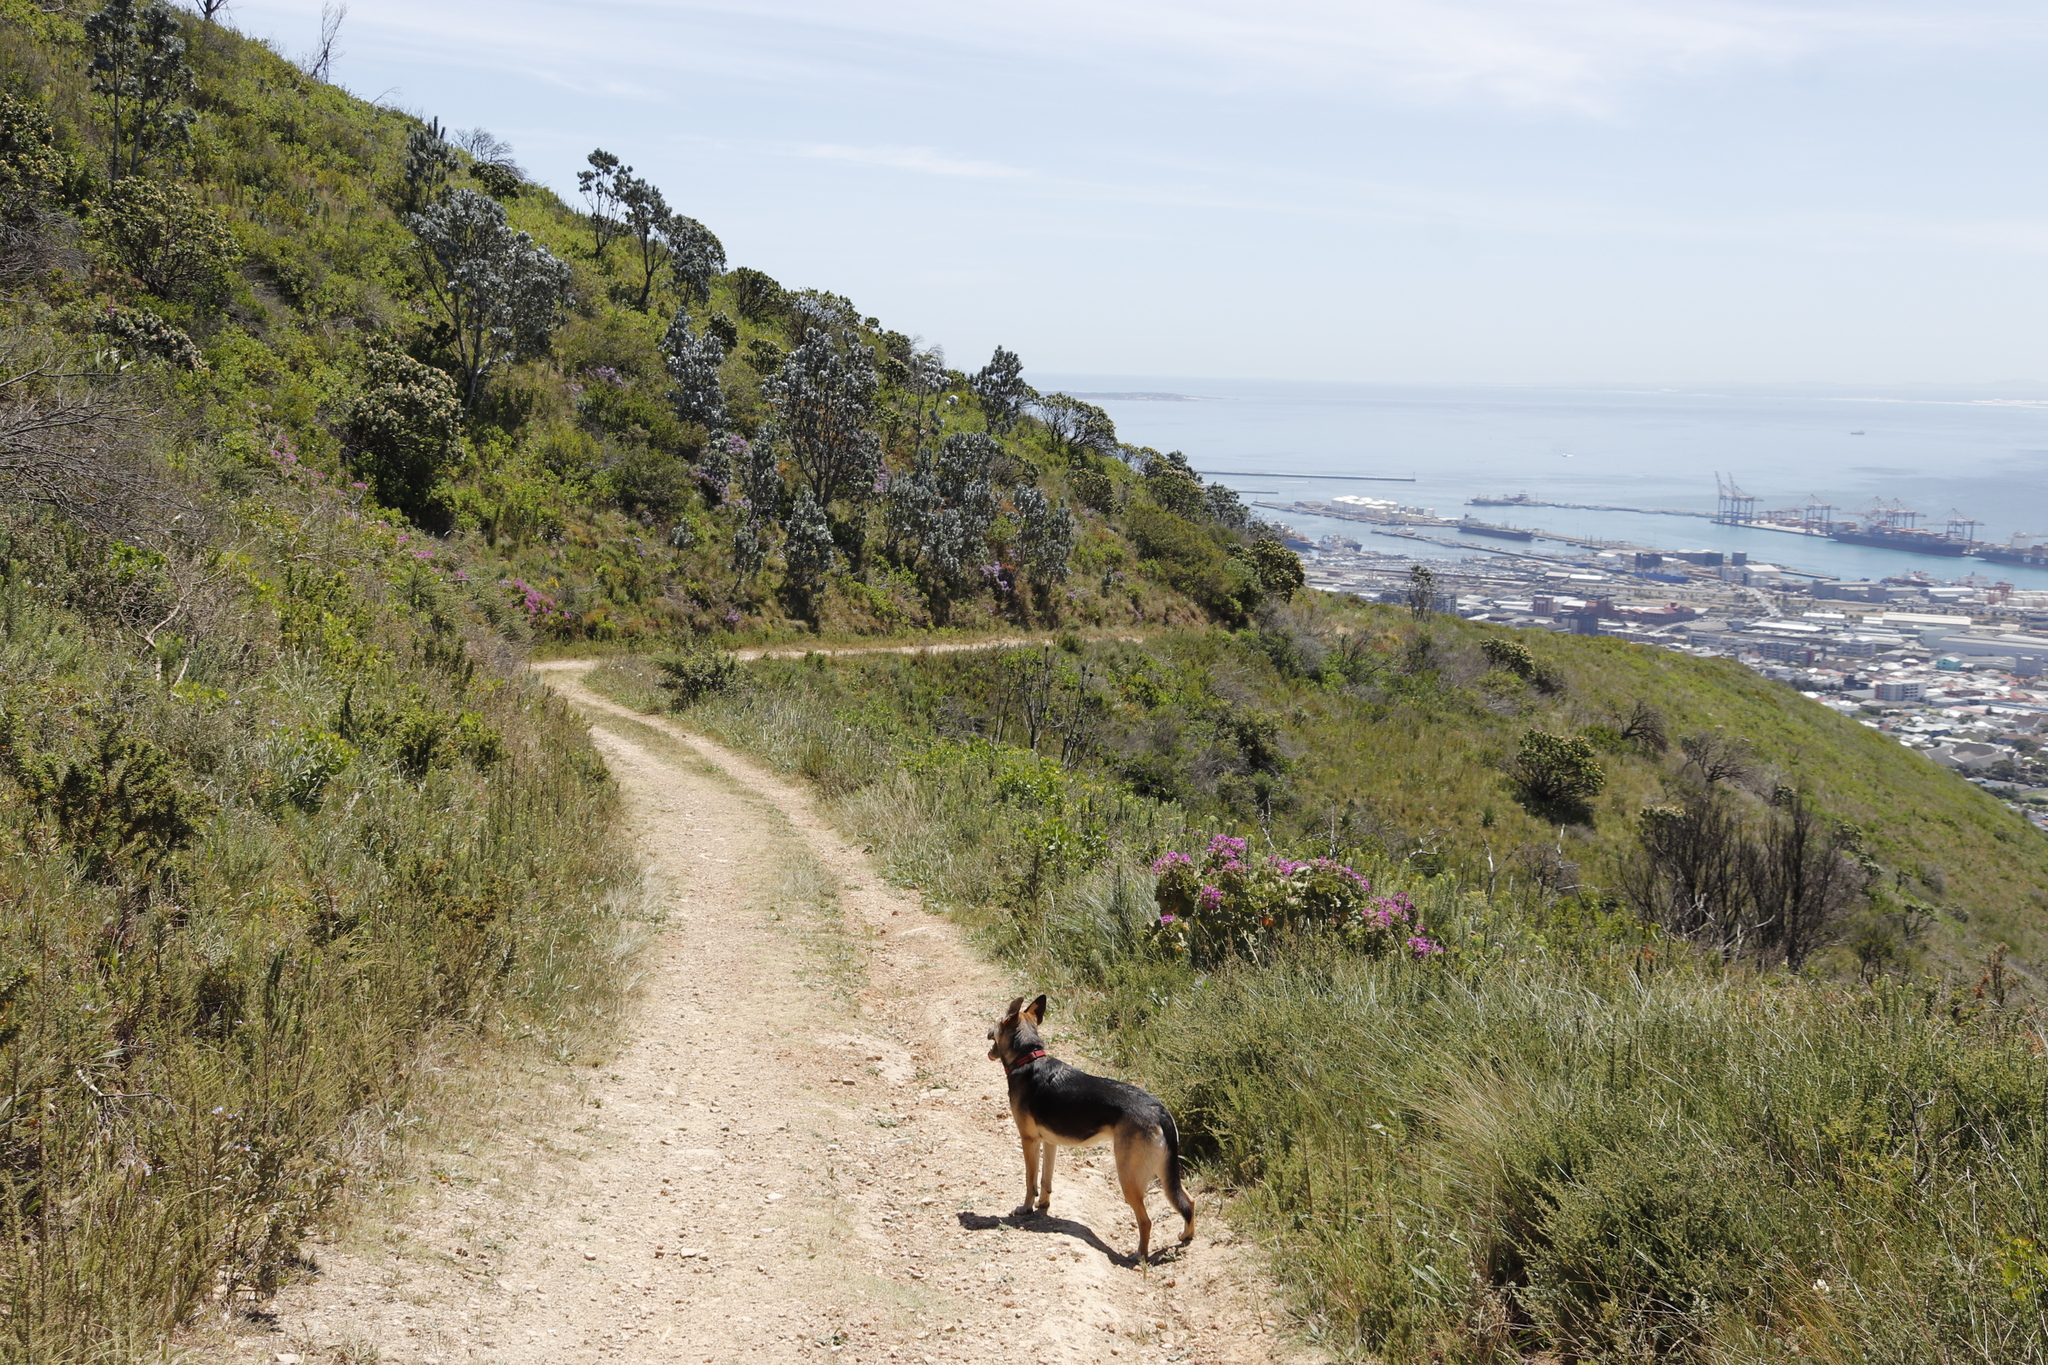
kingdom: Plantae
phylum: Tracheophyta
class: Magnoliopsida
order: Proteales
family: Proteaceae
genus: Leucadendron
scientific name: Leucadendron argenteum
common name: Cape silver tree
